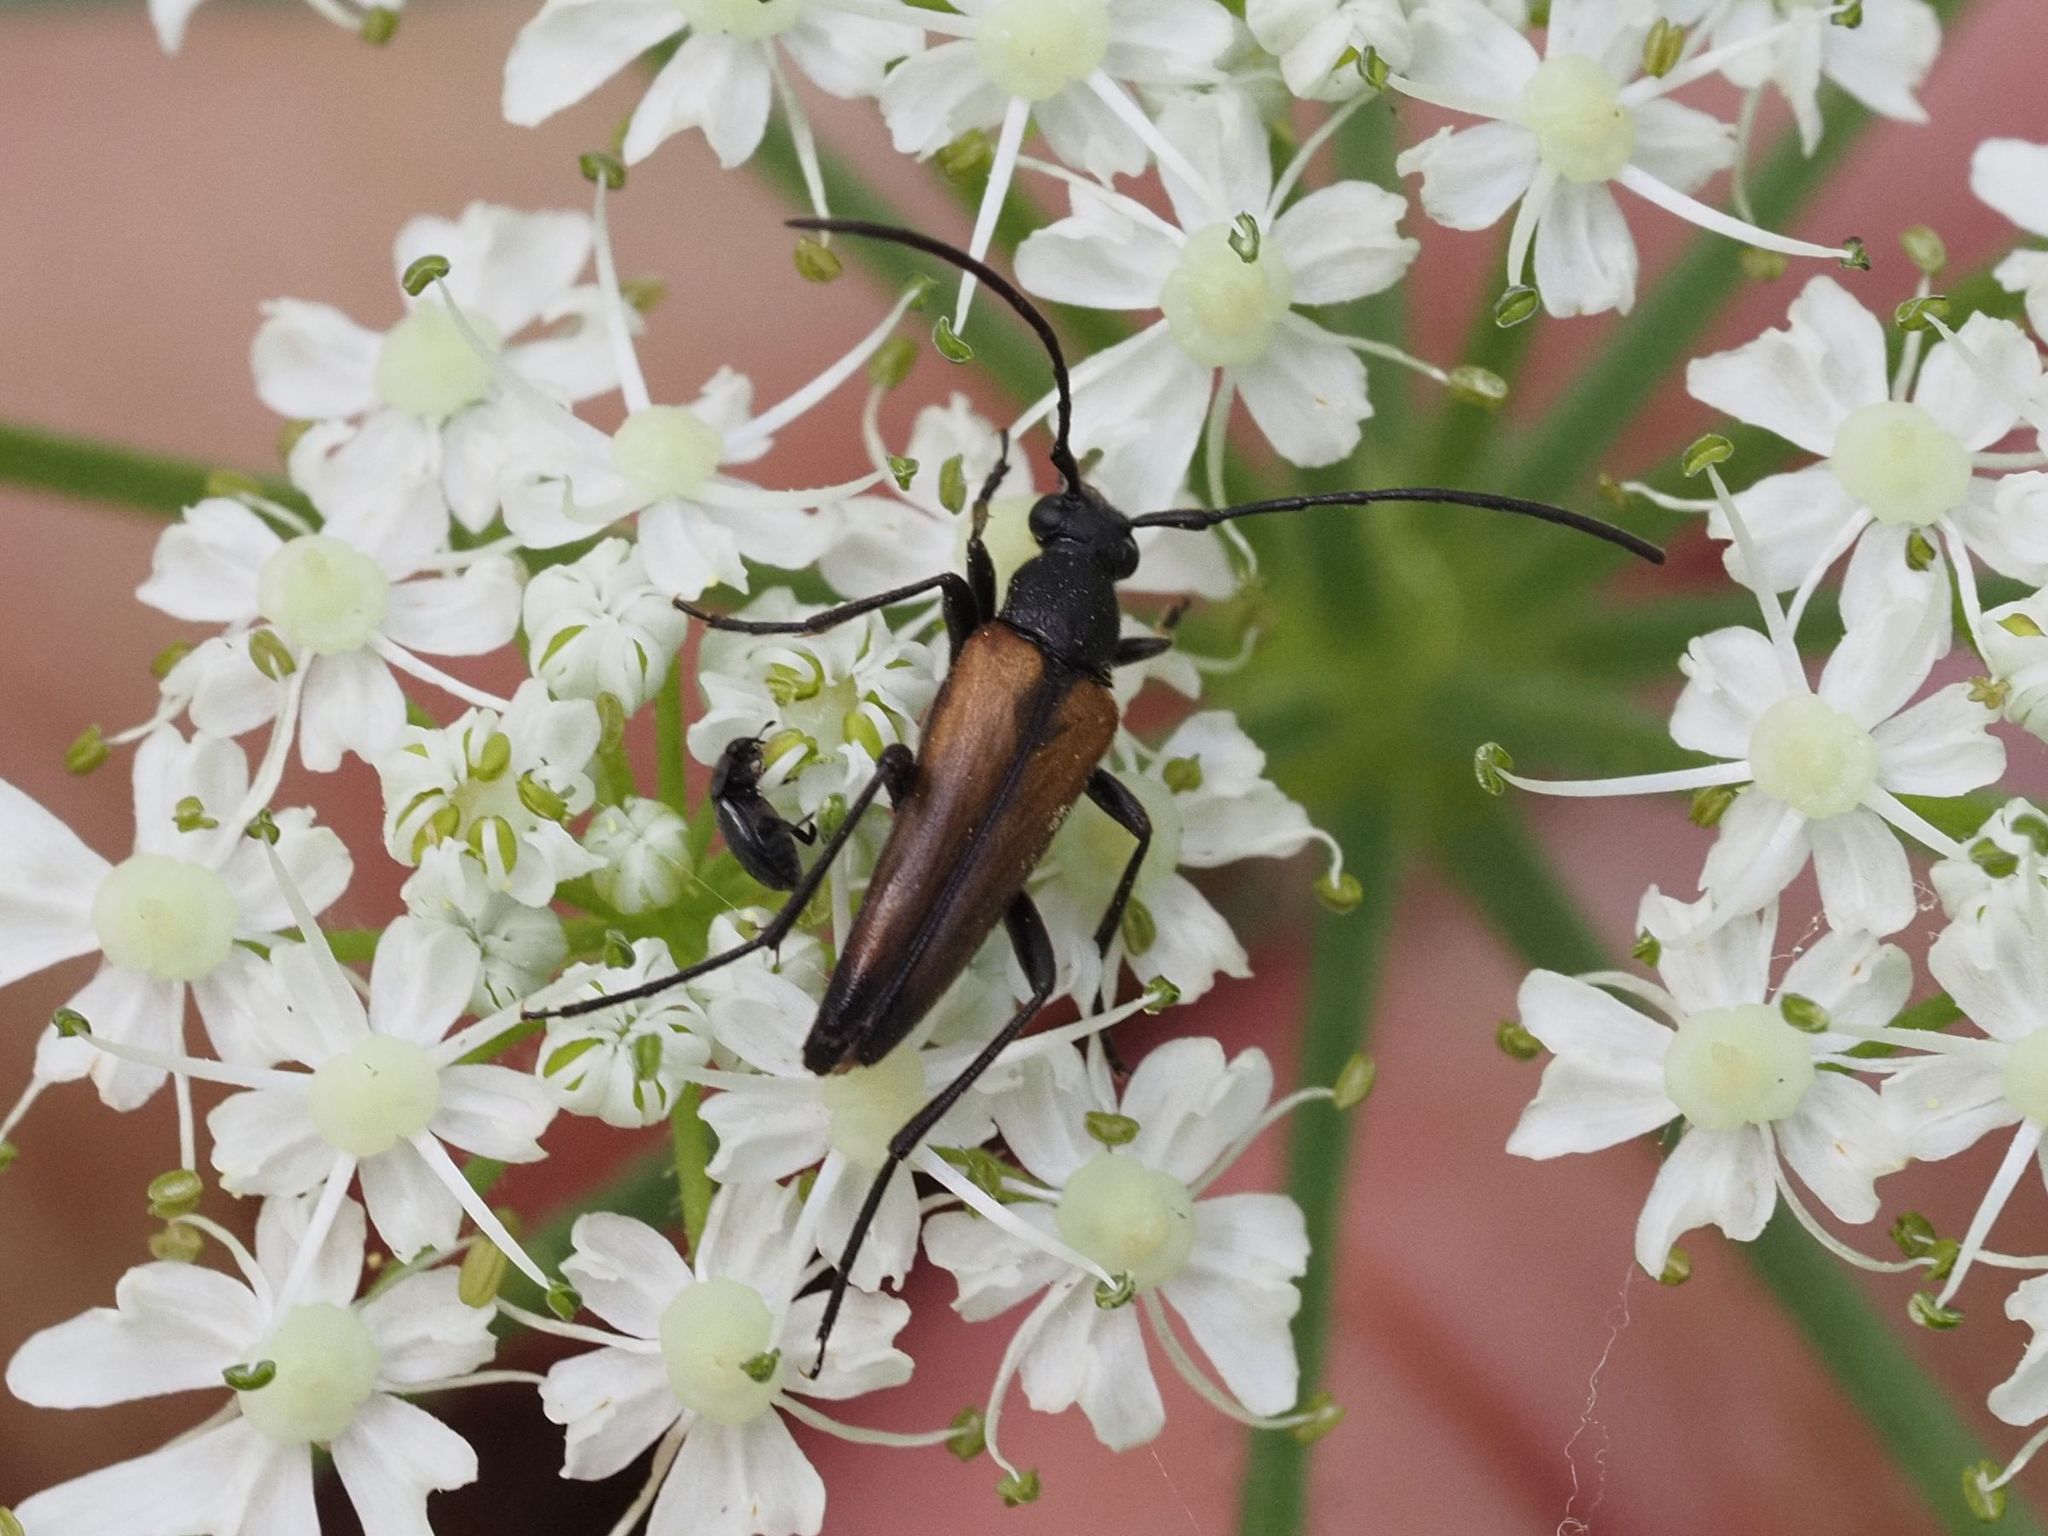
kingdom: Animalia
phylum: Arthropoda
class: Insecta
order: Coleoptera
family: Cerambycidae
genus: Stenurella
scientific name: Stenurella melanura
